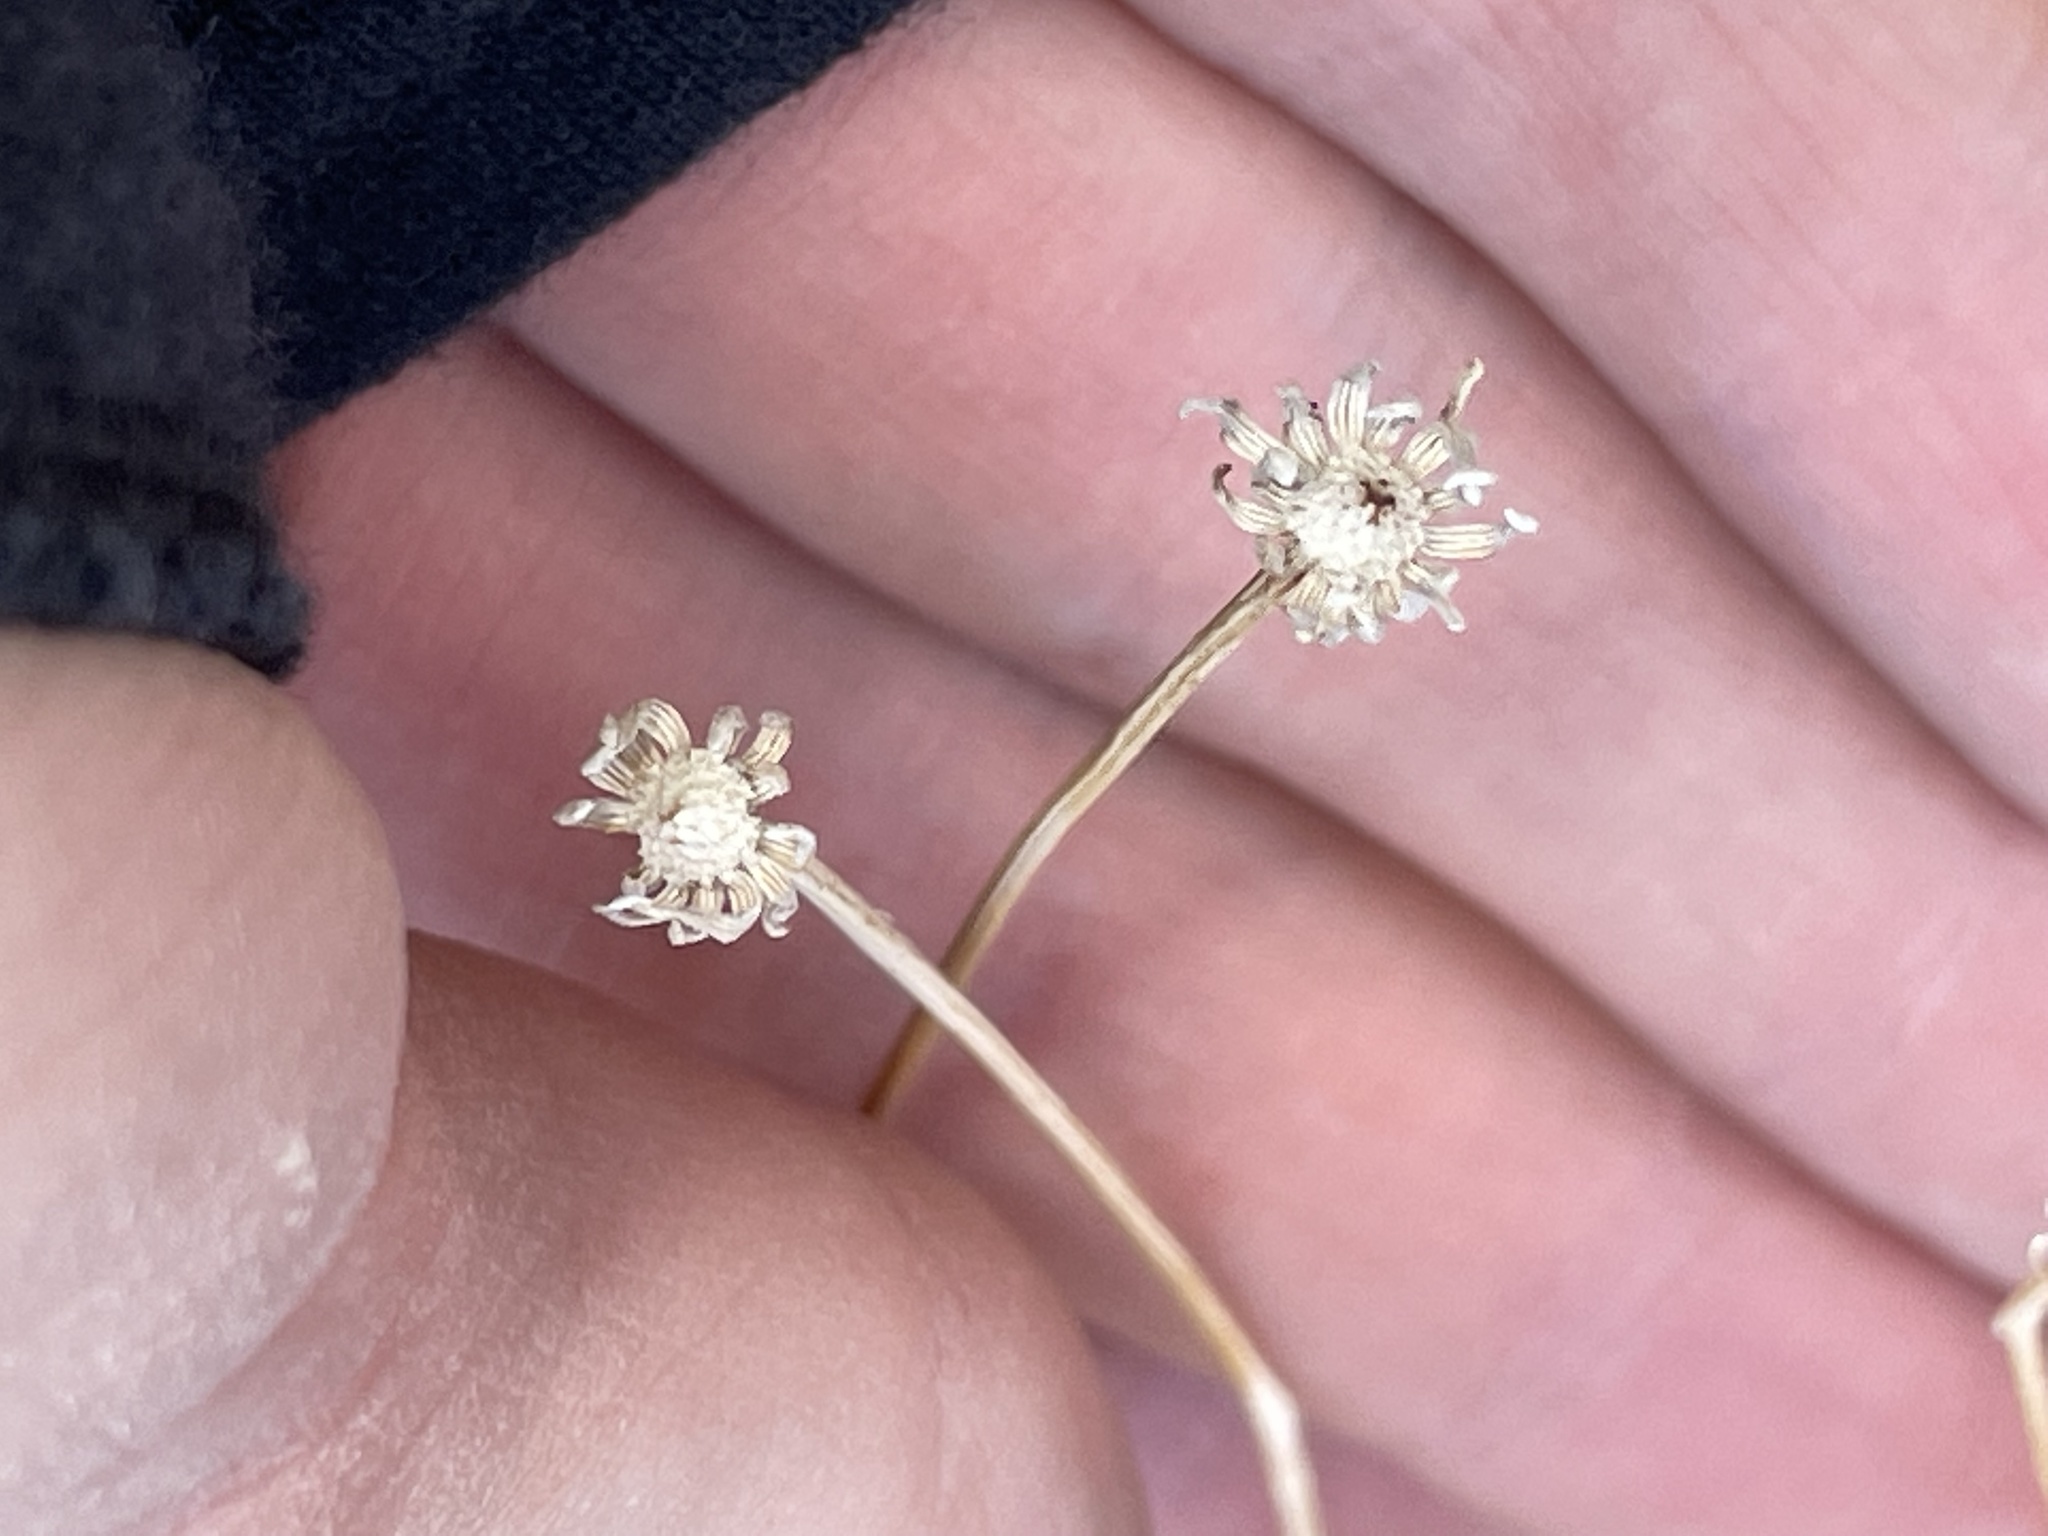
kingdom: Plantae
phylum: Tracheophyta
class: Magnoliopsida
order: Asterales
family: Asteraceae
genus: Bahiopsis
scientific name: Bahiopsis parishii
